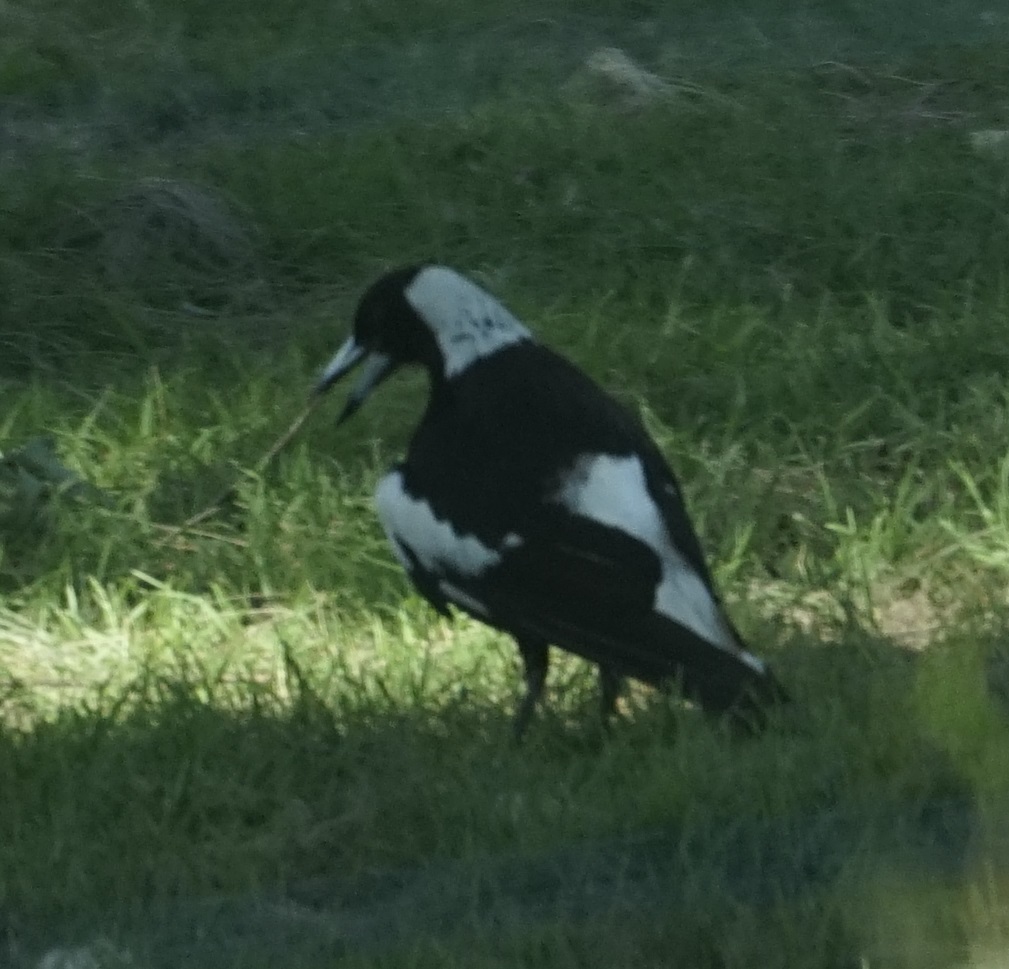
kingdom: Animalia
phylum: Chordata
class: Aves
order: Passeriformes
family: Cracticidae
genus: Gymnorhina
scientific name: Gymnorhina tibicen
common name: Australian magpie
